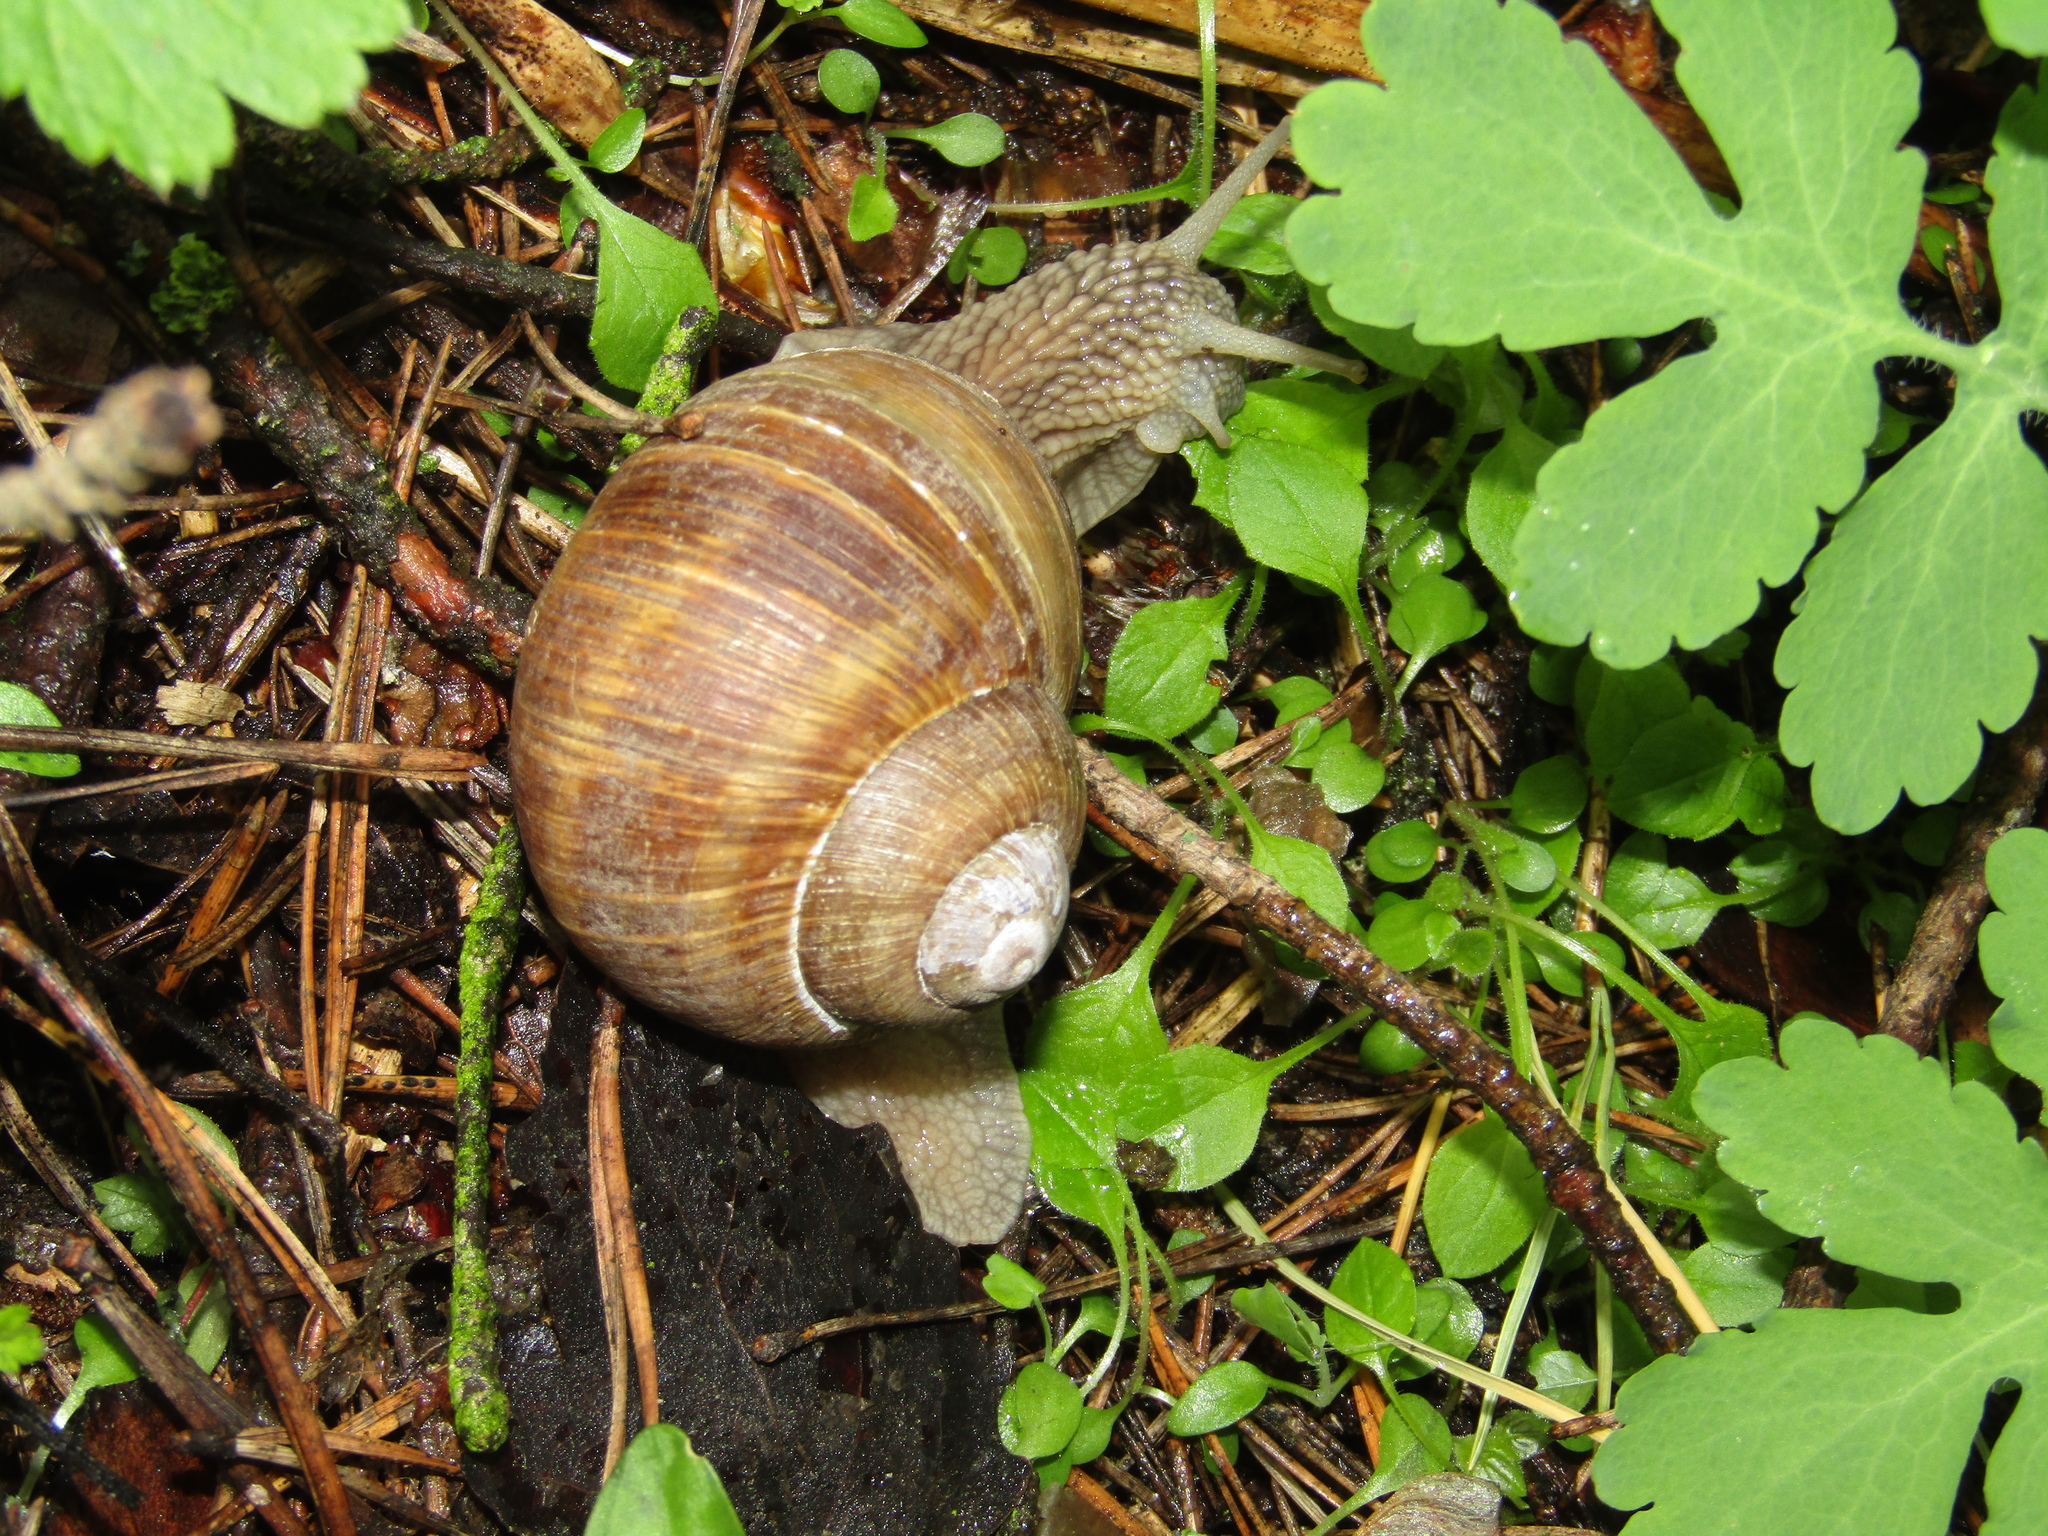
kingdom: Animalia
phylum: Mollusca
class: Gastropoda
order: Stylommatophora
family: Helicidae
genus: Helix
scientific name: Helix pomatia
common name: Roman snail
